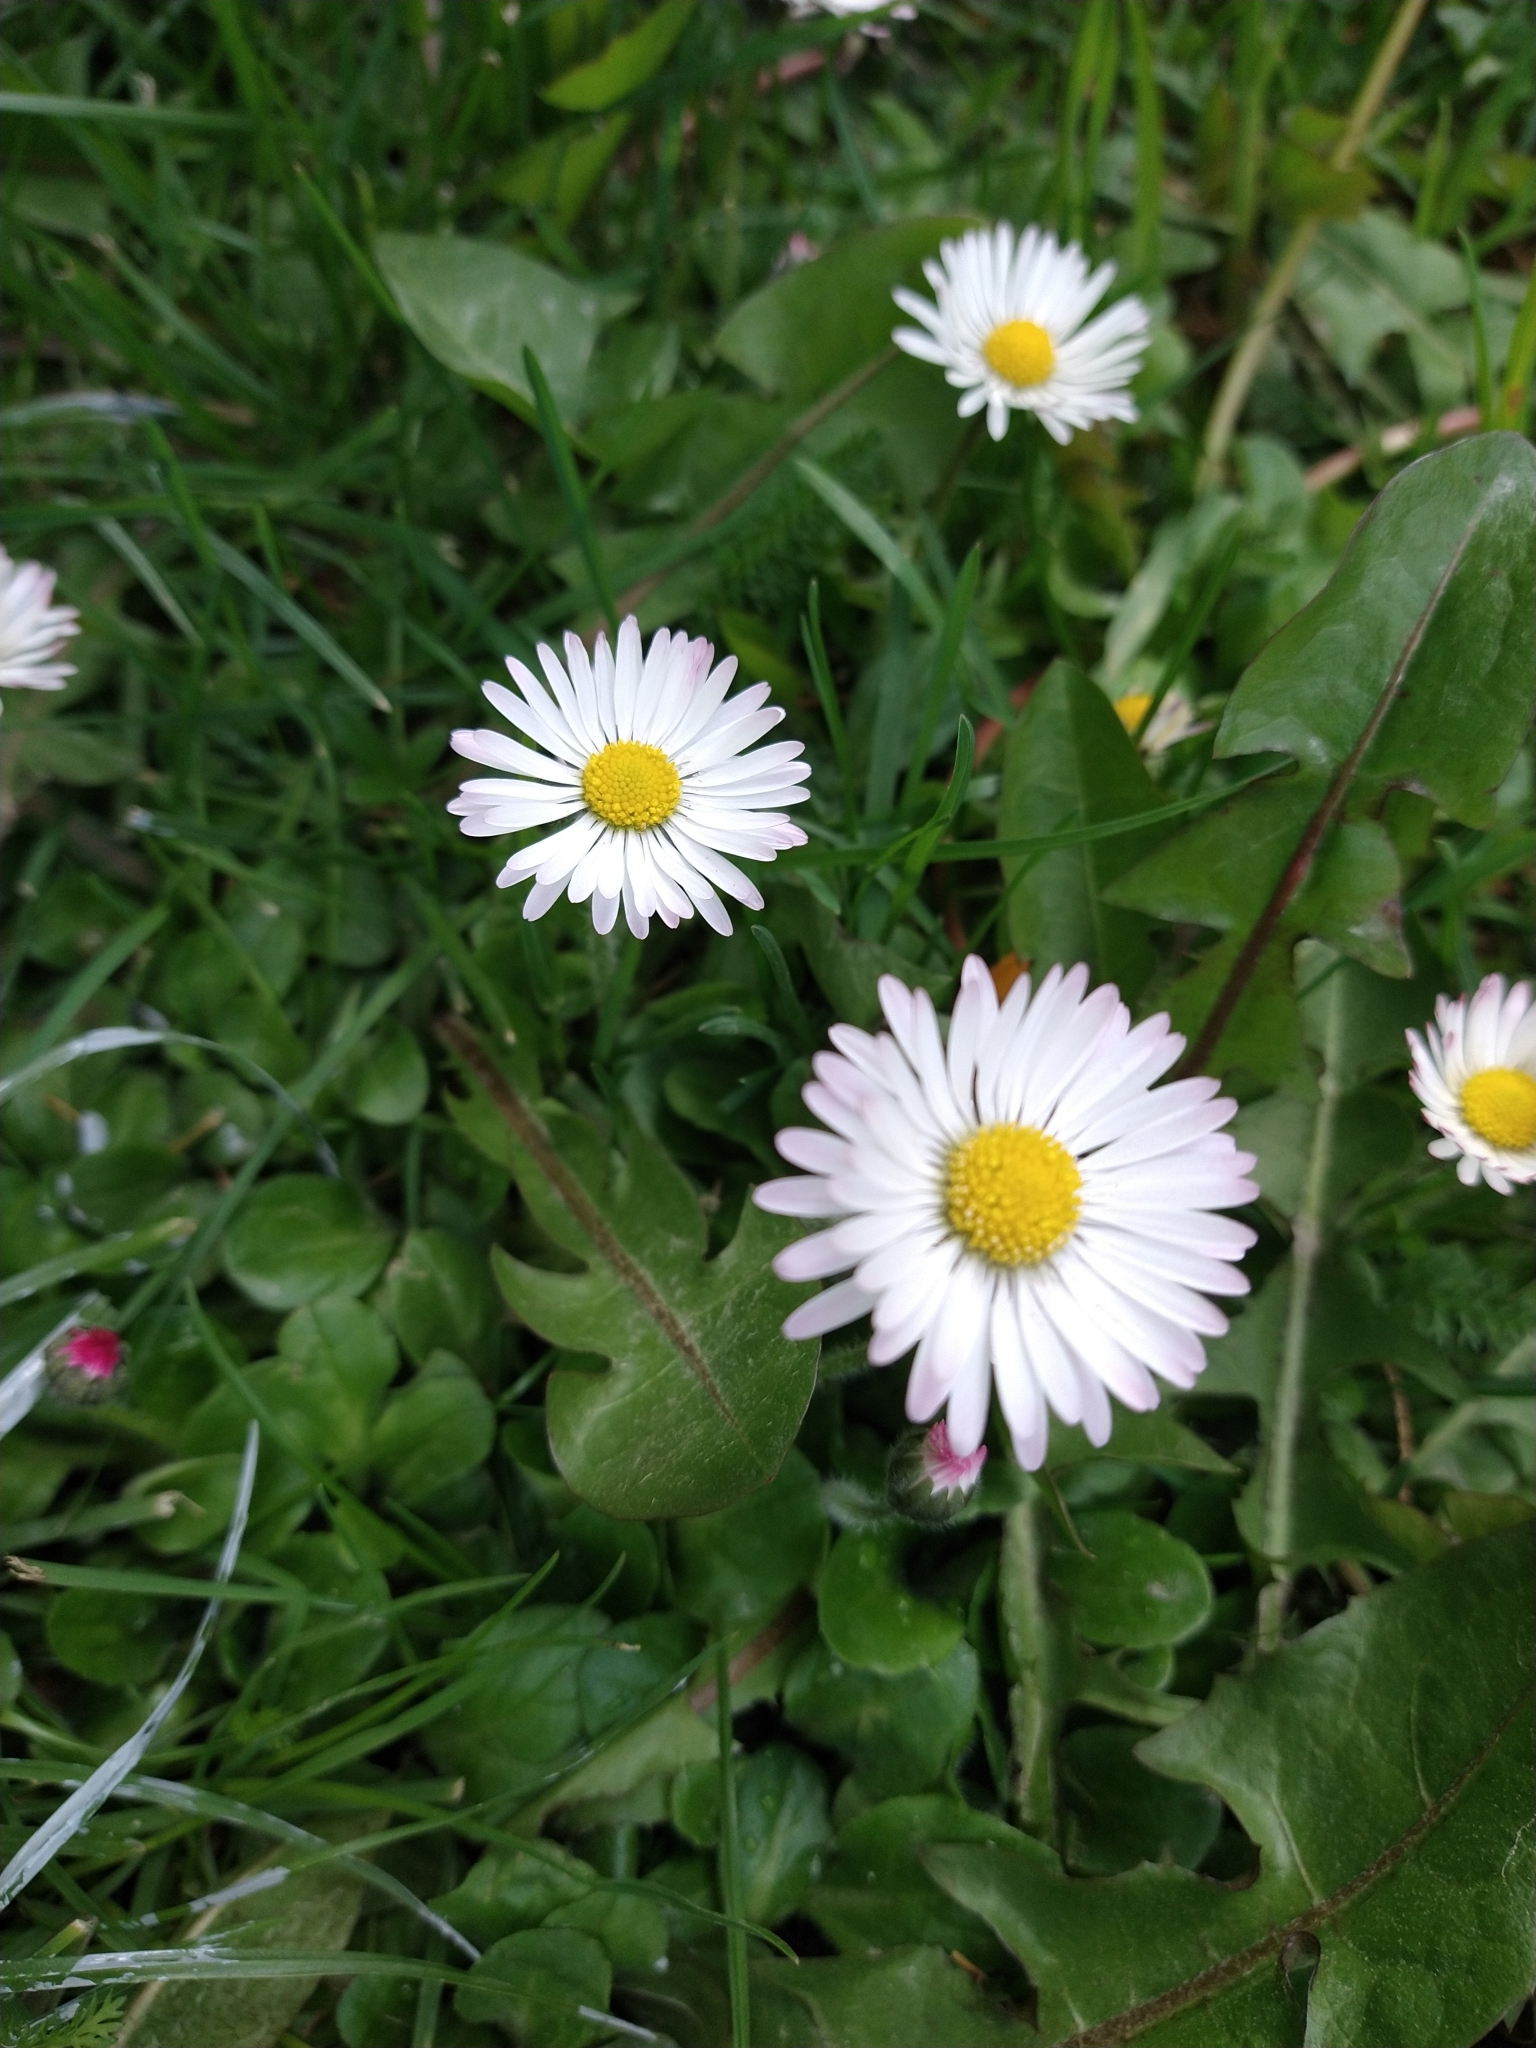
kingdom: Plantae
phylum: Tracheophyta
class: Magnoliopsida
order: Asterales
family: Asteraceae
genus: Bellis
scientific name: Bellis perennis
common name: Lawndaisy
